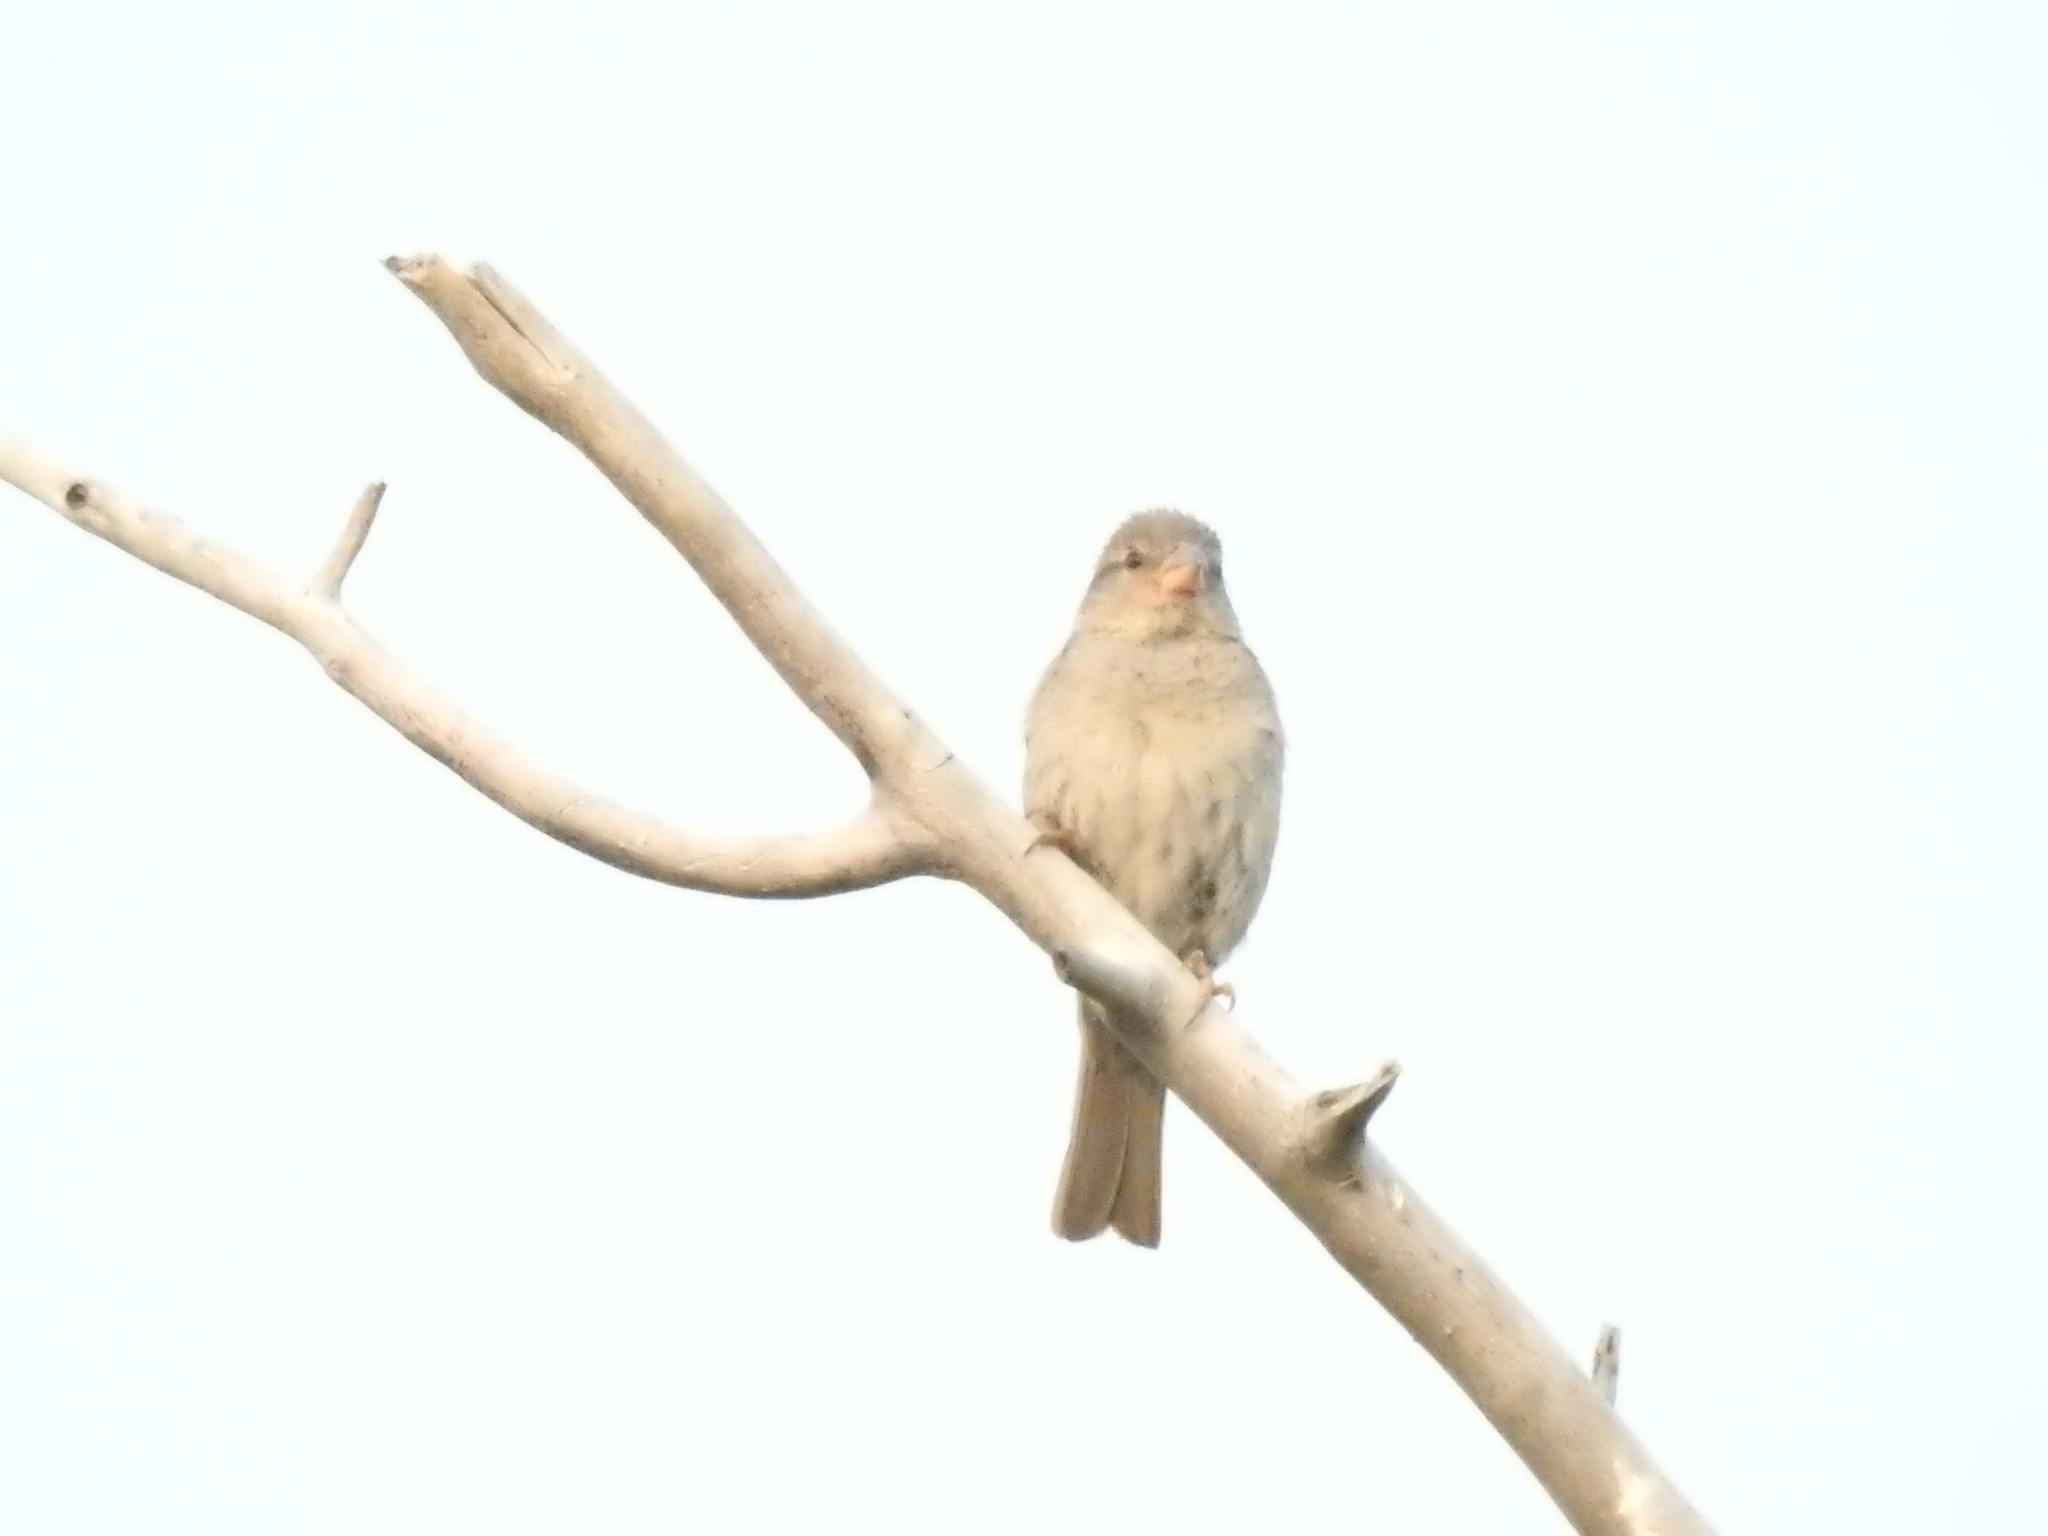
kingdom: Animalia
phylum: Chordata
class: Aves
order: Passeriformes
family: Passeridae
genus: Passer
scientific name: Passer domesticus
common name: House sparrow
